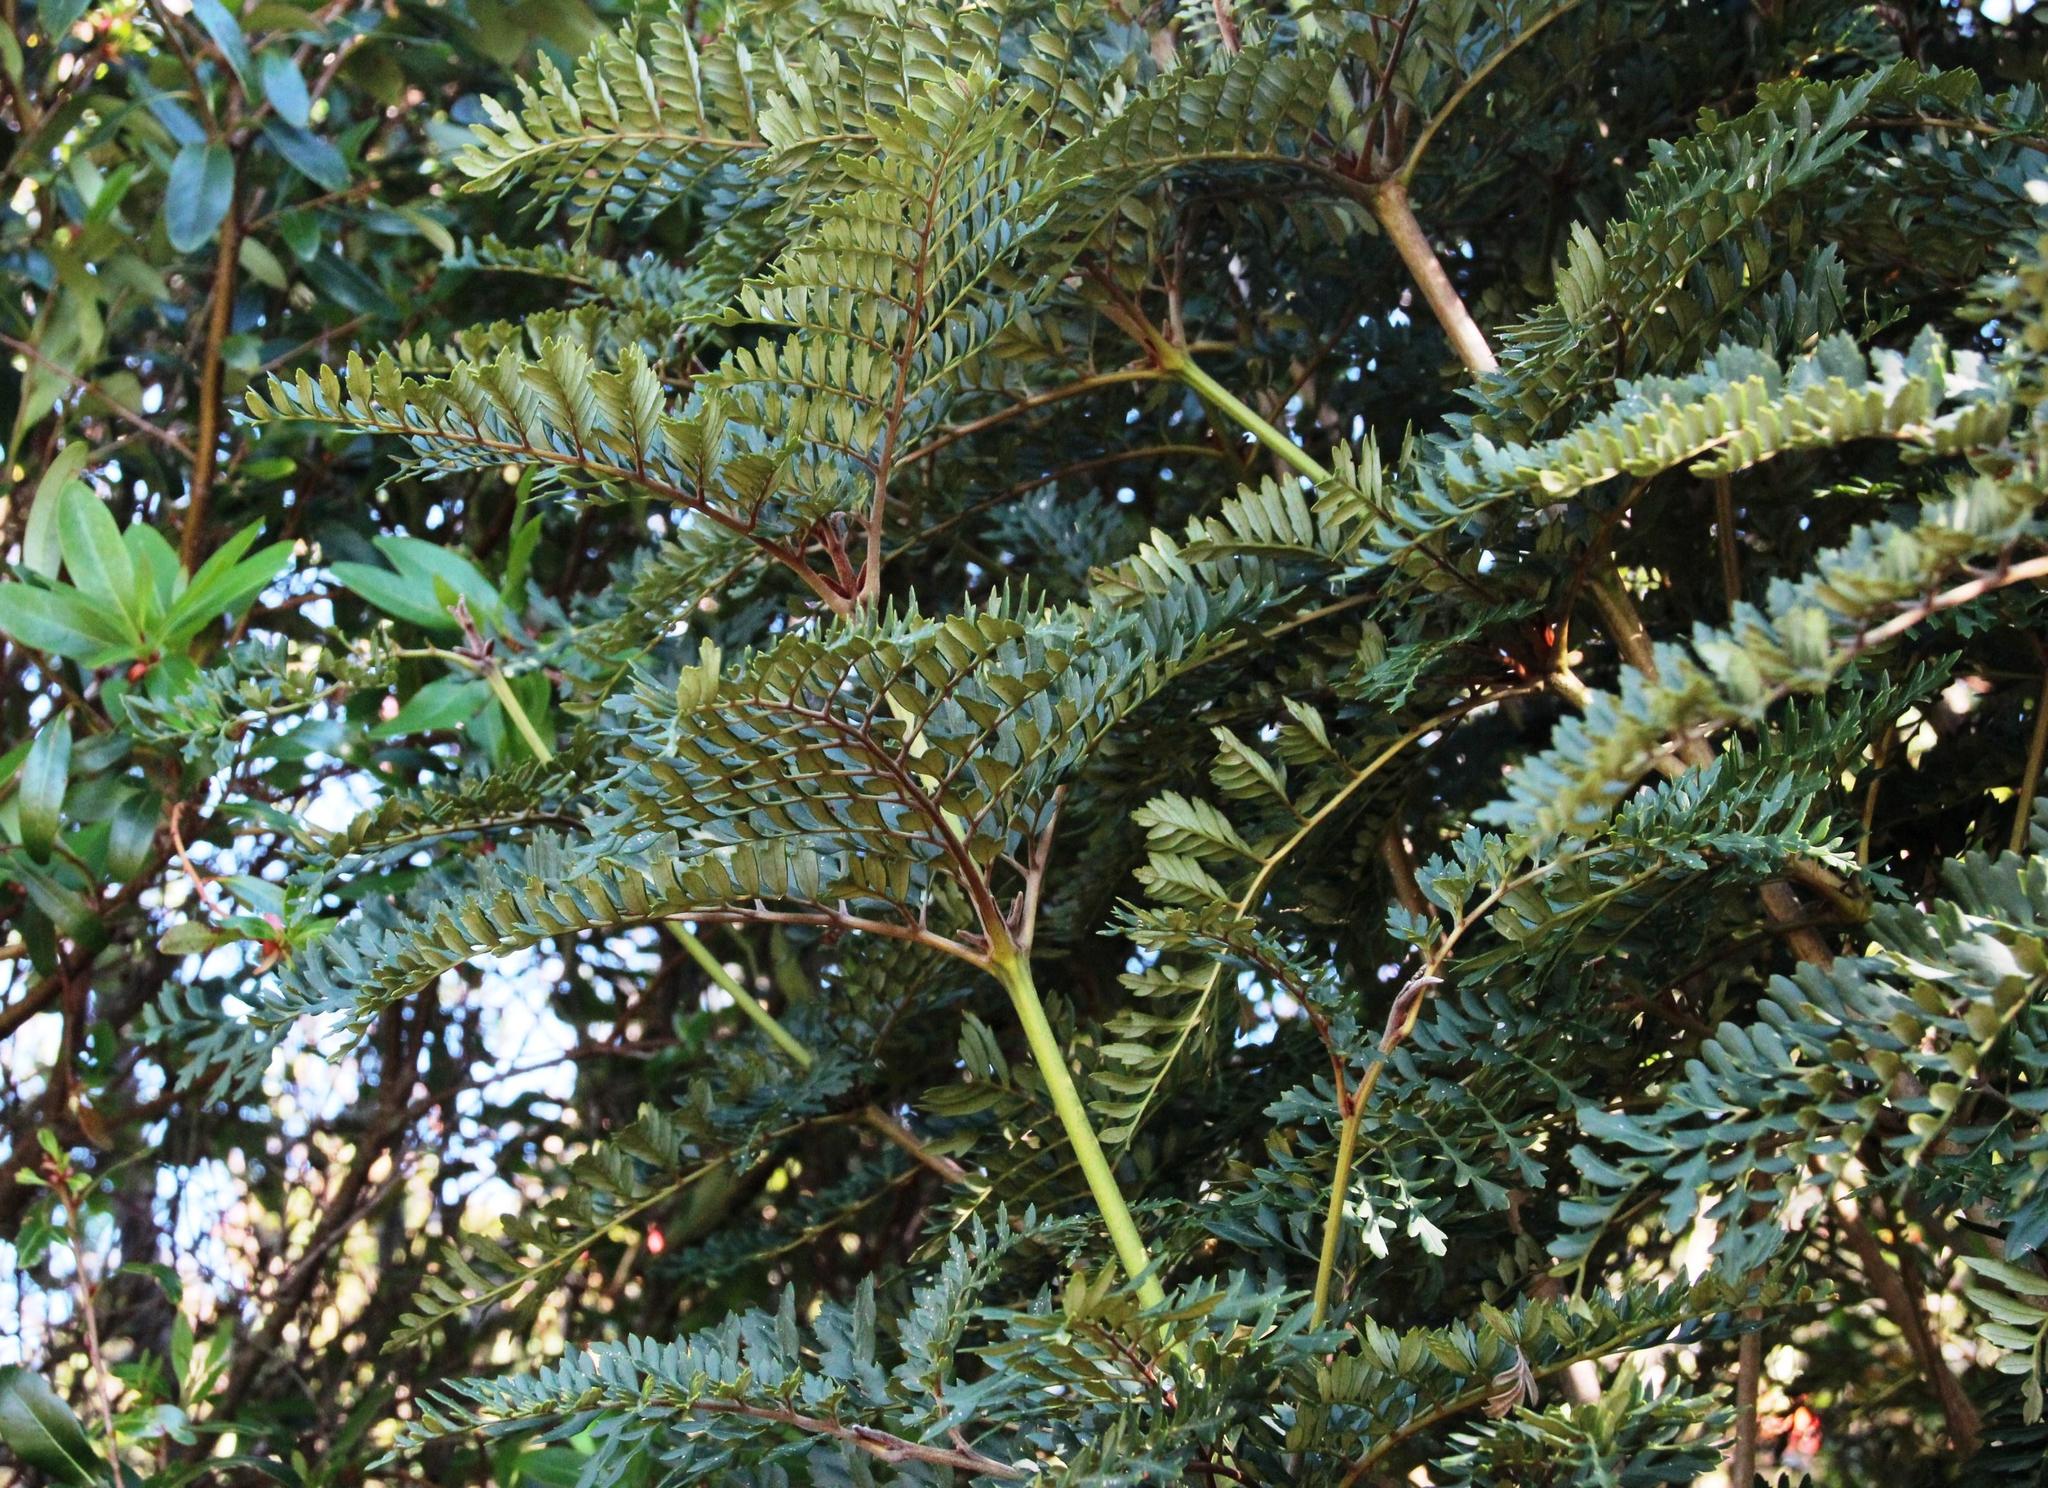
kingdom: Plantae
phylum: Tracheophyta
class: Magnoliopsida
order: Proteales
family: Proteaceae
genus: Lomatia
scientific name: Lomatia ferruginea
